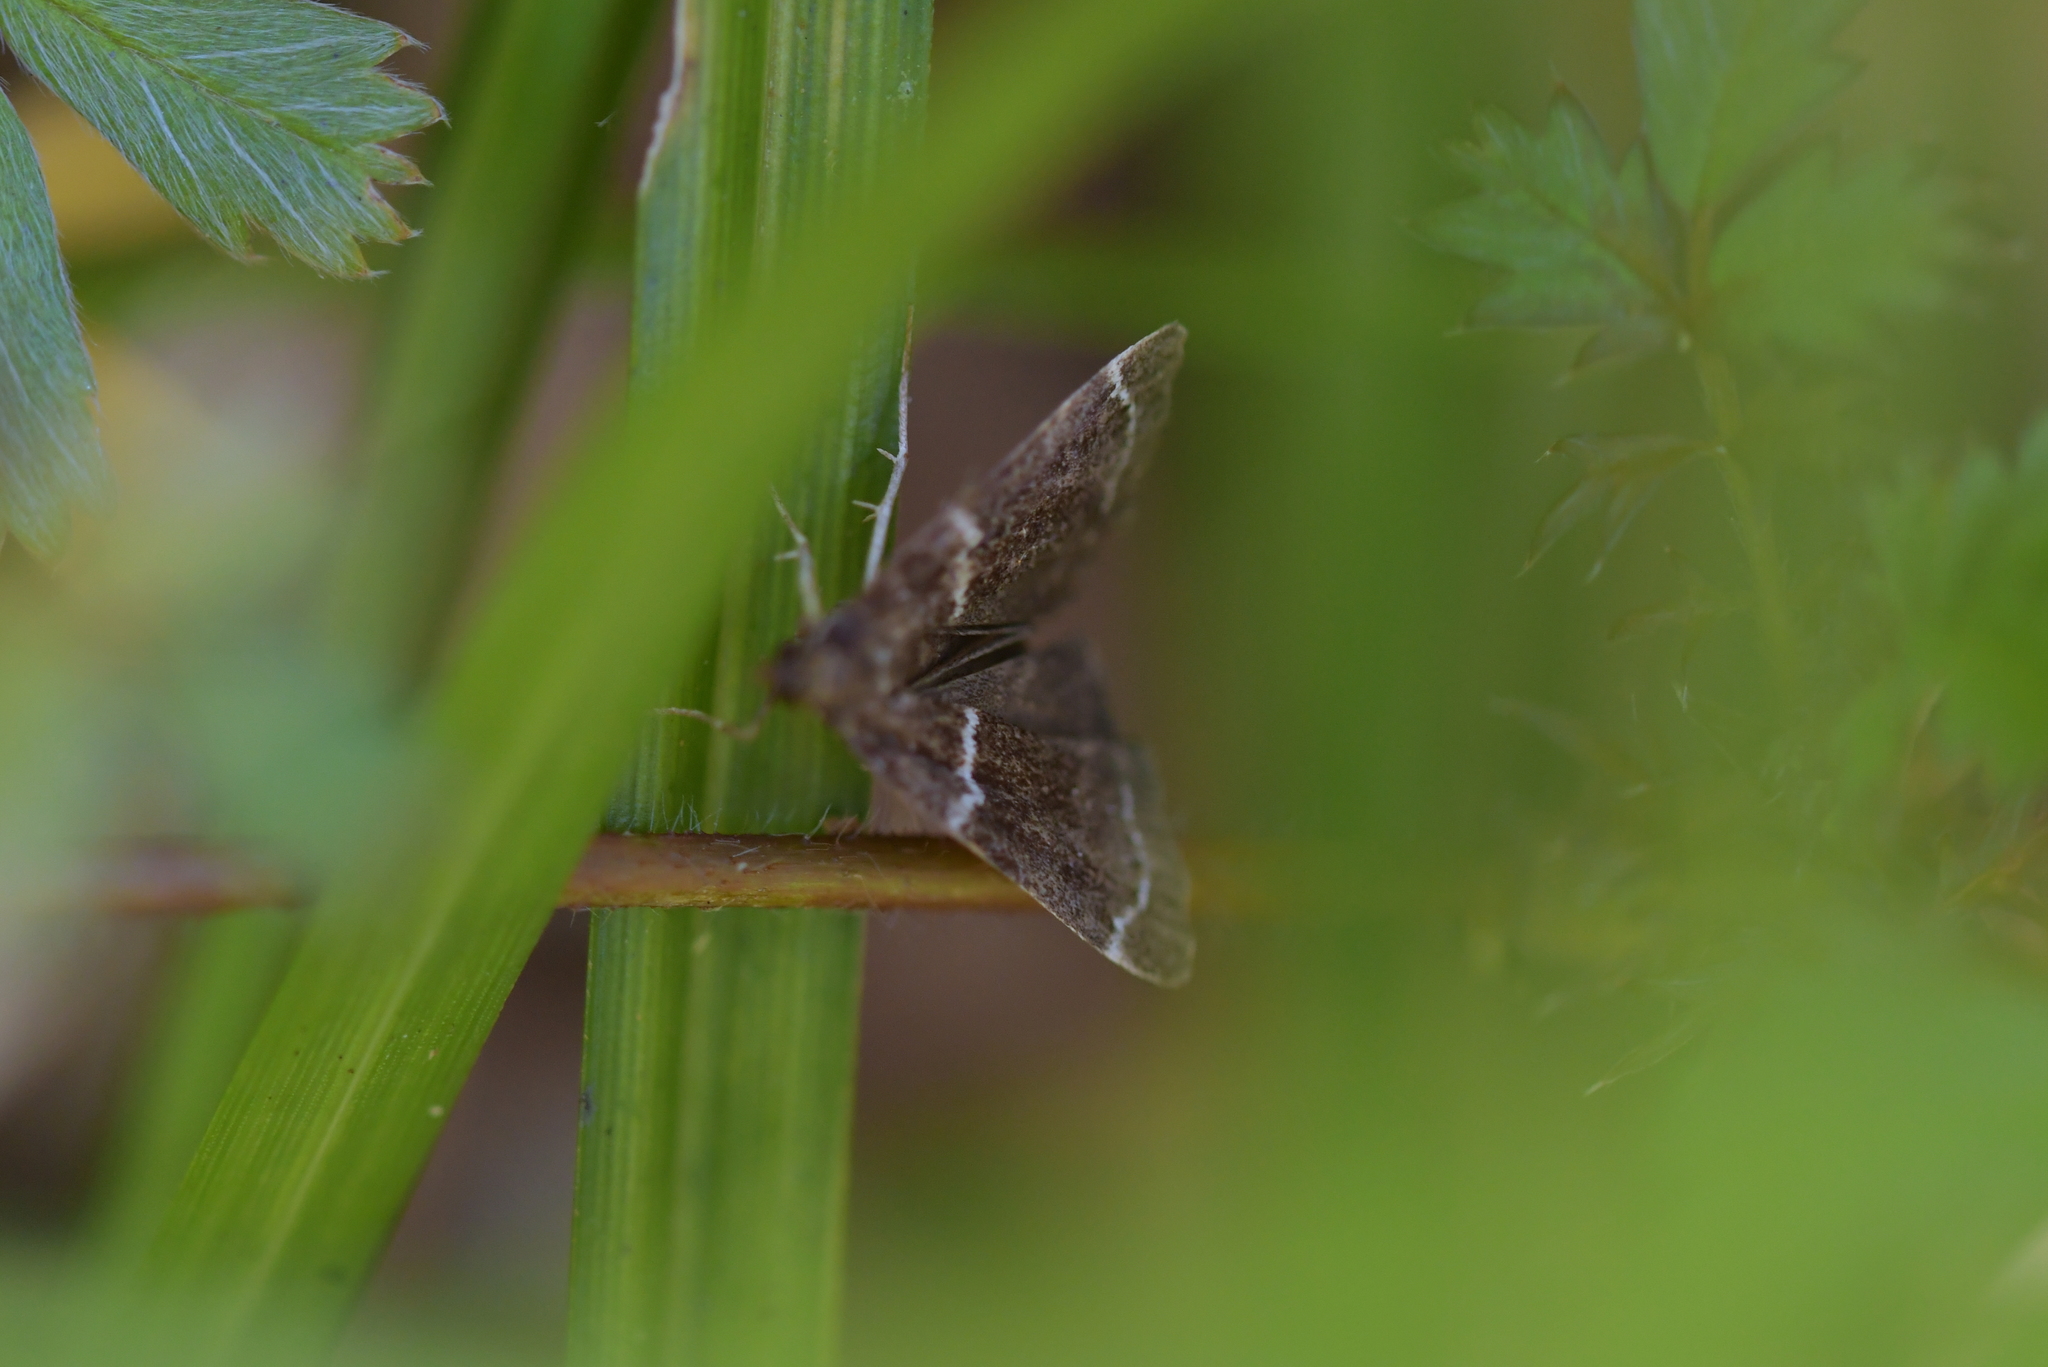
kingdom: Animalia
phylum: Arthropoda
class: Insecta
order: Lepidoptera
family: Crambidae
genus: Eudonia
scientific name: Eudonia leucogramma
